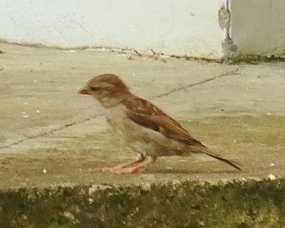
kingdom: Animalia
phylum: Chordata
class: Aves
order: Passeriformes
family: Passeridae
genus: Passer
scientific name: Passer domesticus
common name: House sparrow
